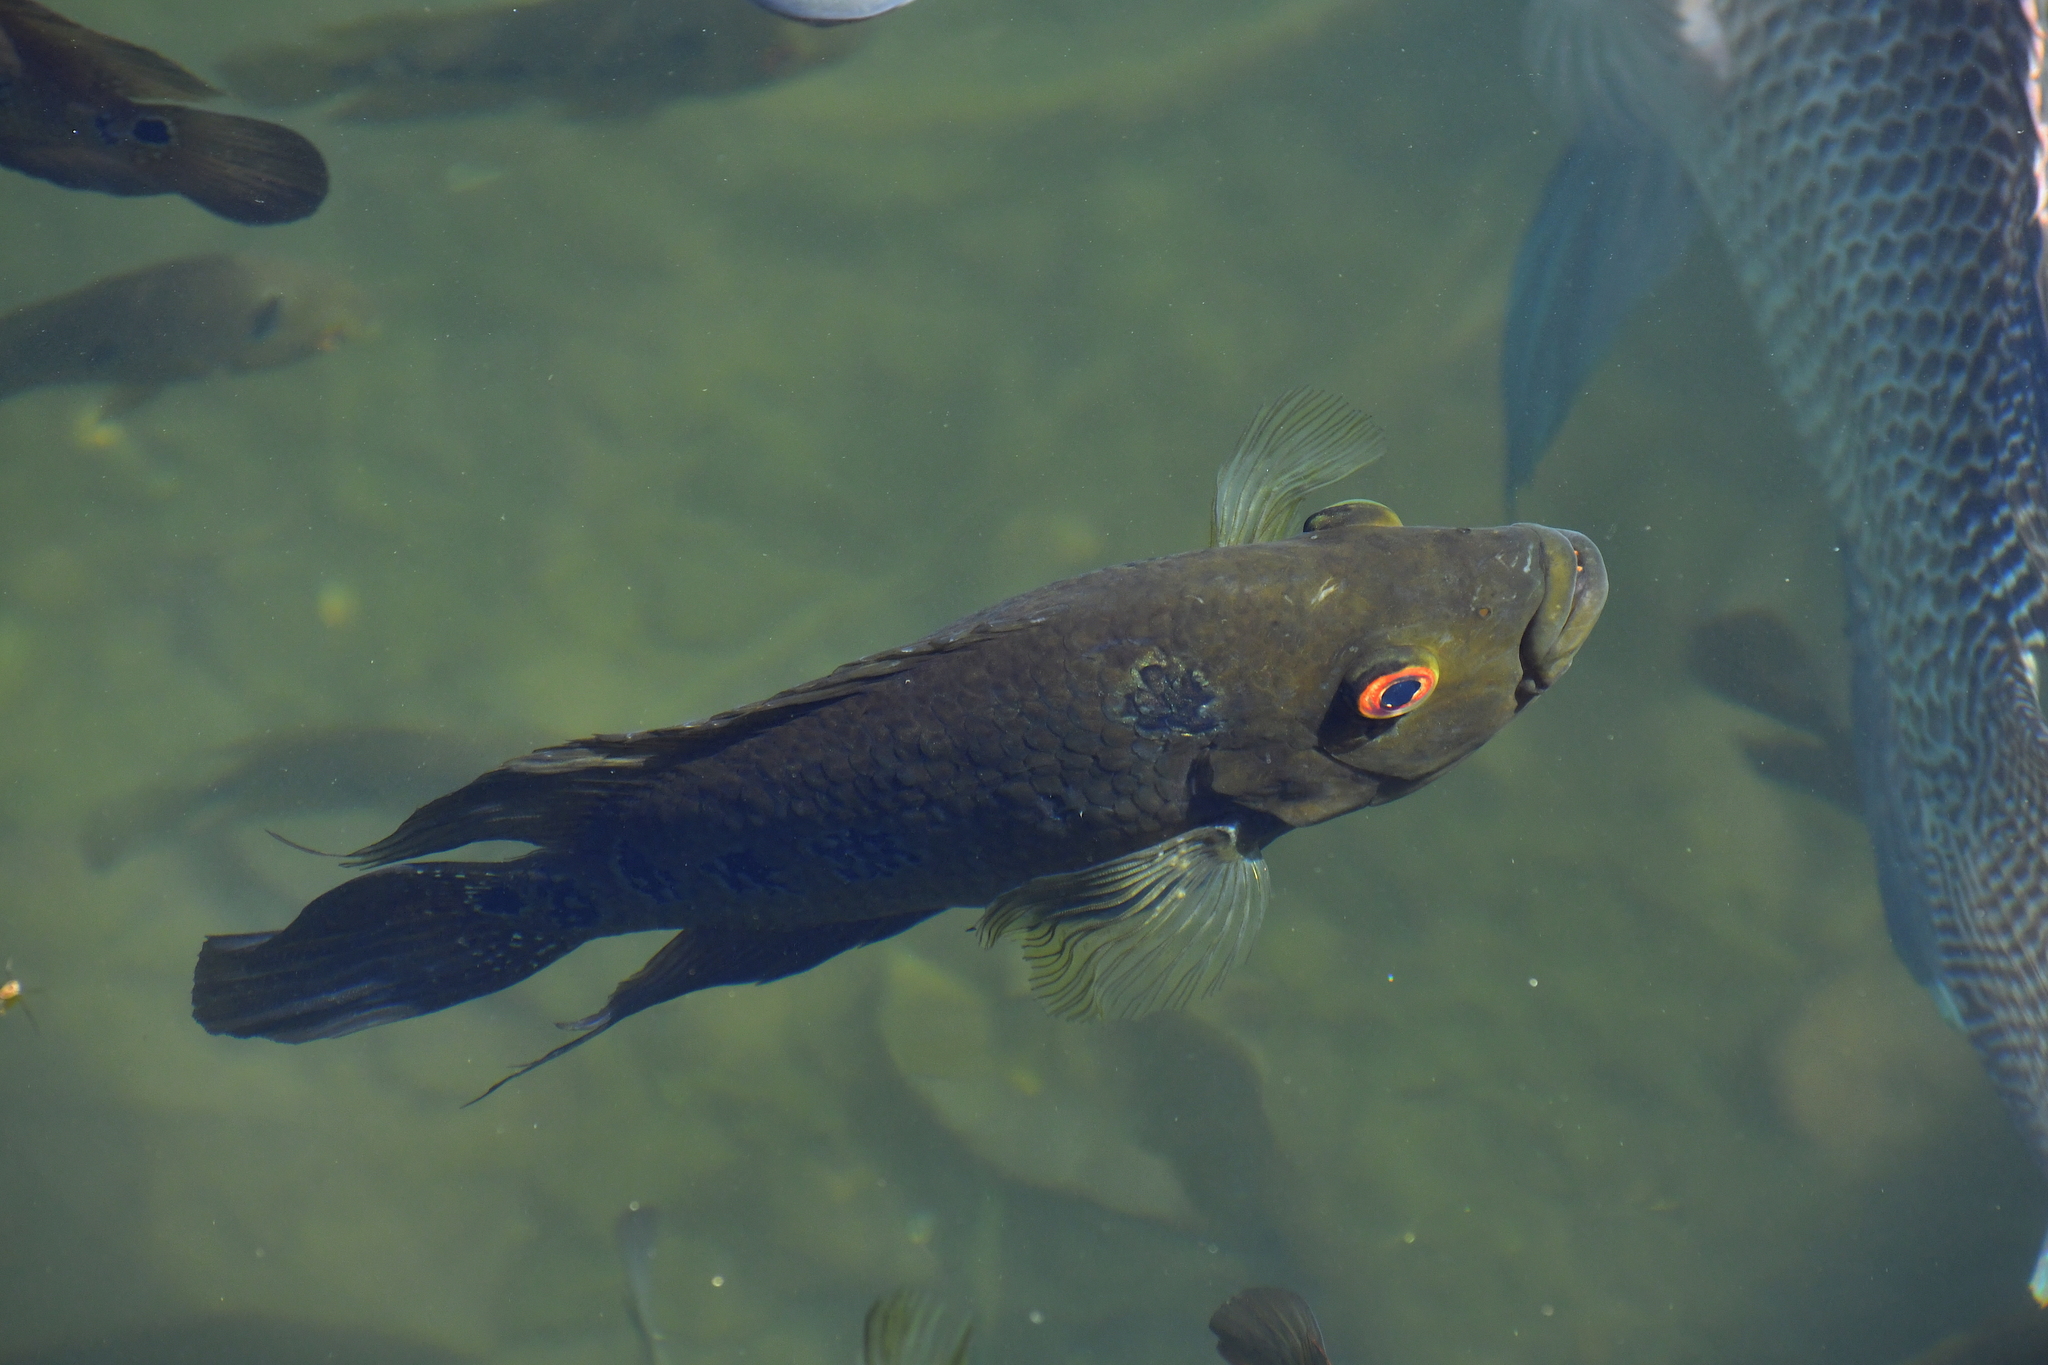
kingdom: Animalia
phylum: Chordata
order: Perciformes
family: Cichlidae
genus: Cichlasoma
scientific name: Cichlasoma trimaculatum
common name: Threespot cichlid
